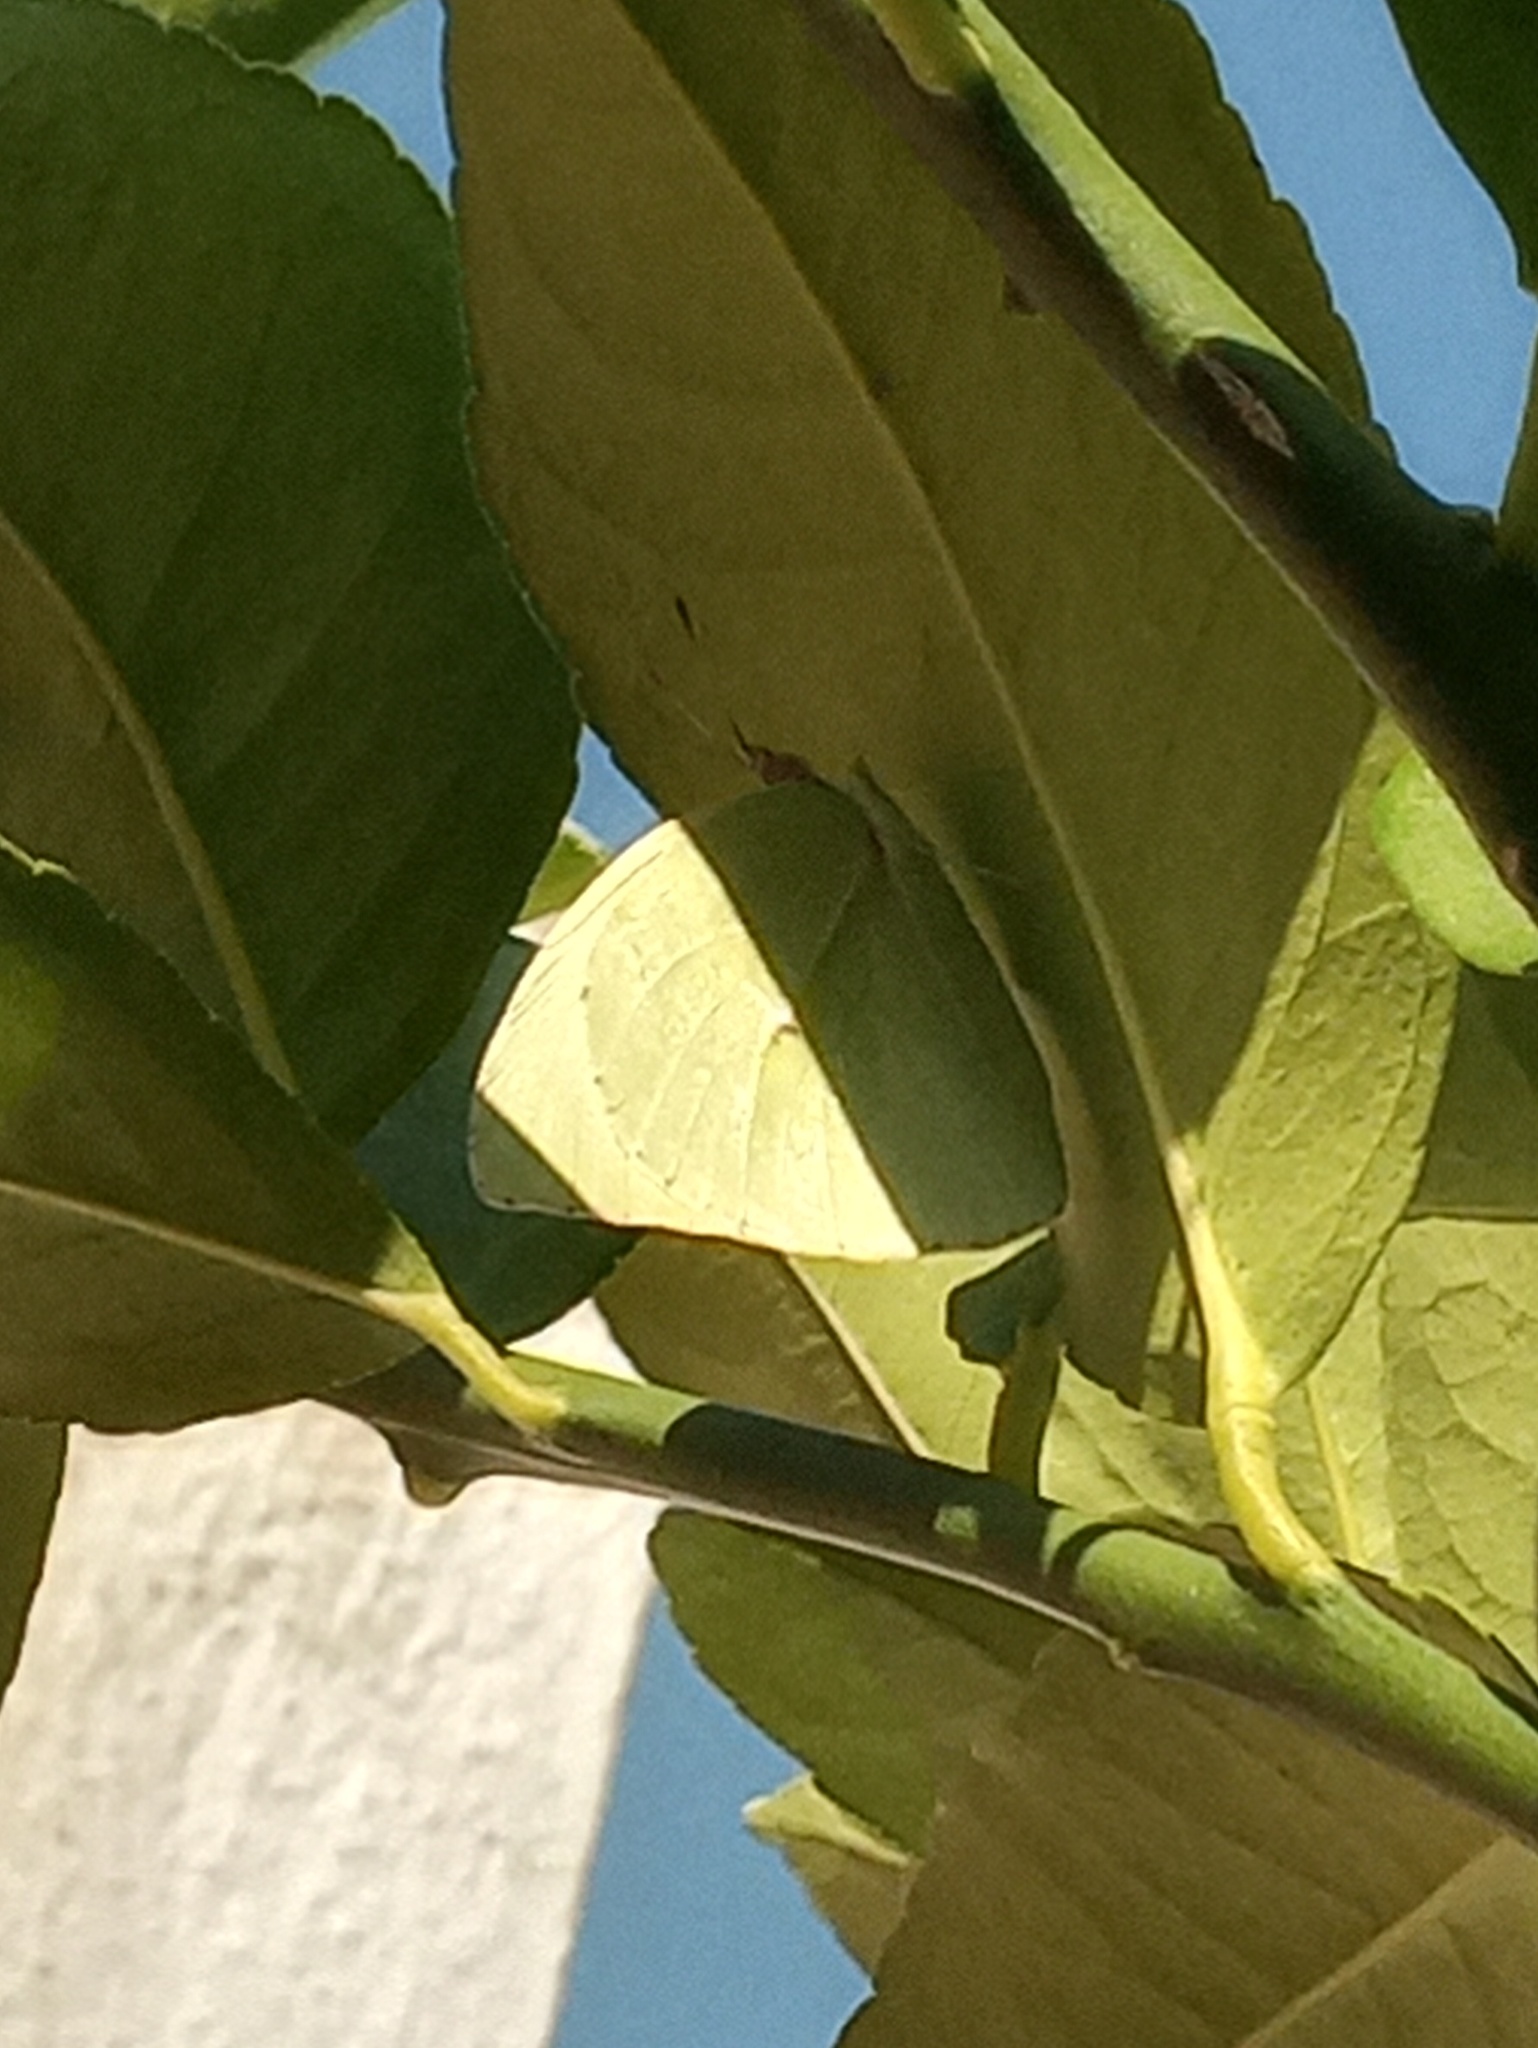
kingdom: Animalia
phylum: Arthropoda
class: Insecta
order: Lepidoptera
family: Pieridae
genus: Kricogonia
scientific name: Kricogonia lyside
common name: Guayacan sulphur,
